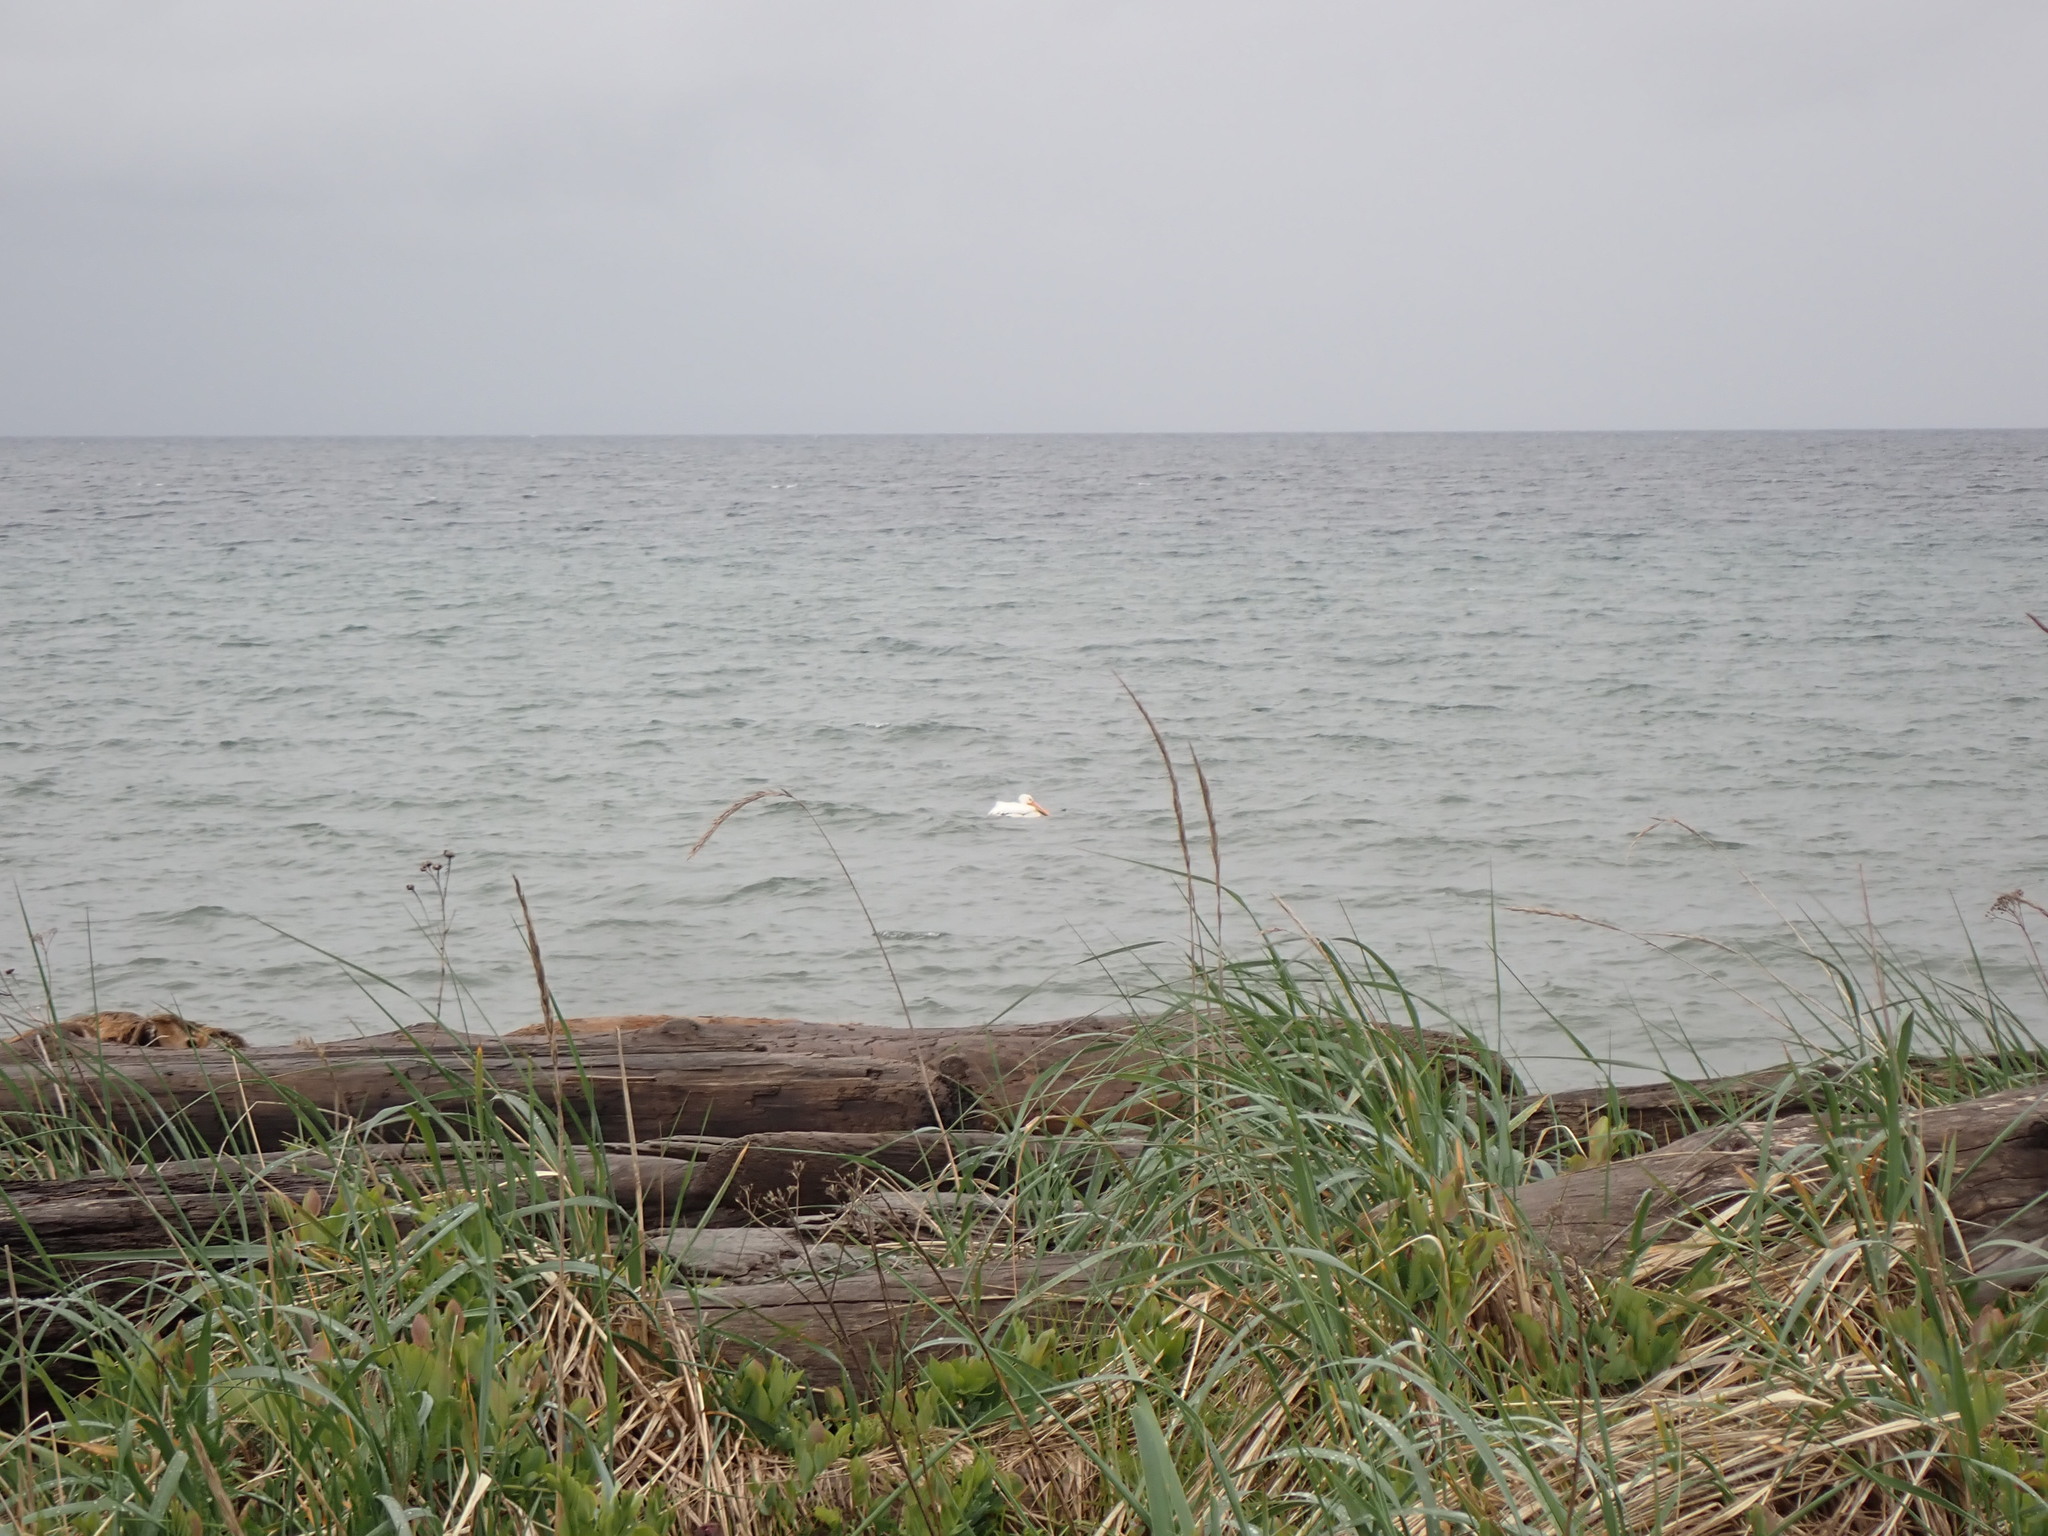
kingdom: Animalia
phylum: Chordata
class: Aves
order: Pelecaniformes
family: Pelecanidae
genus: Pelecanus
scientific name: Pelecanus erythrorhynchos
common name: American white pelican
